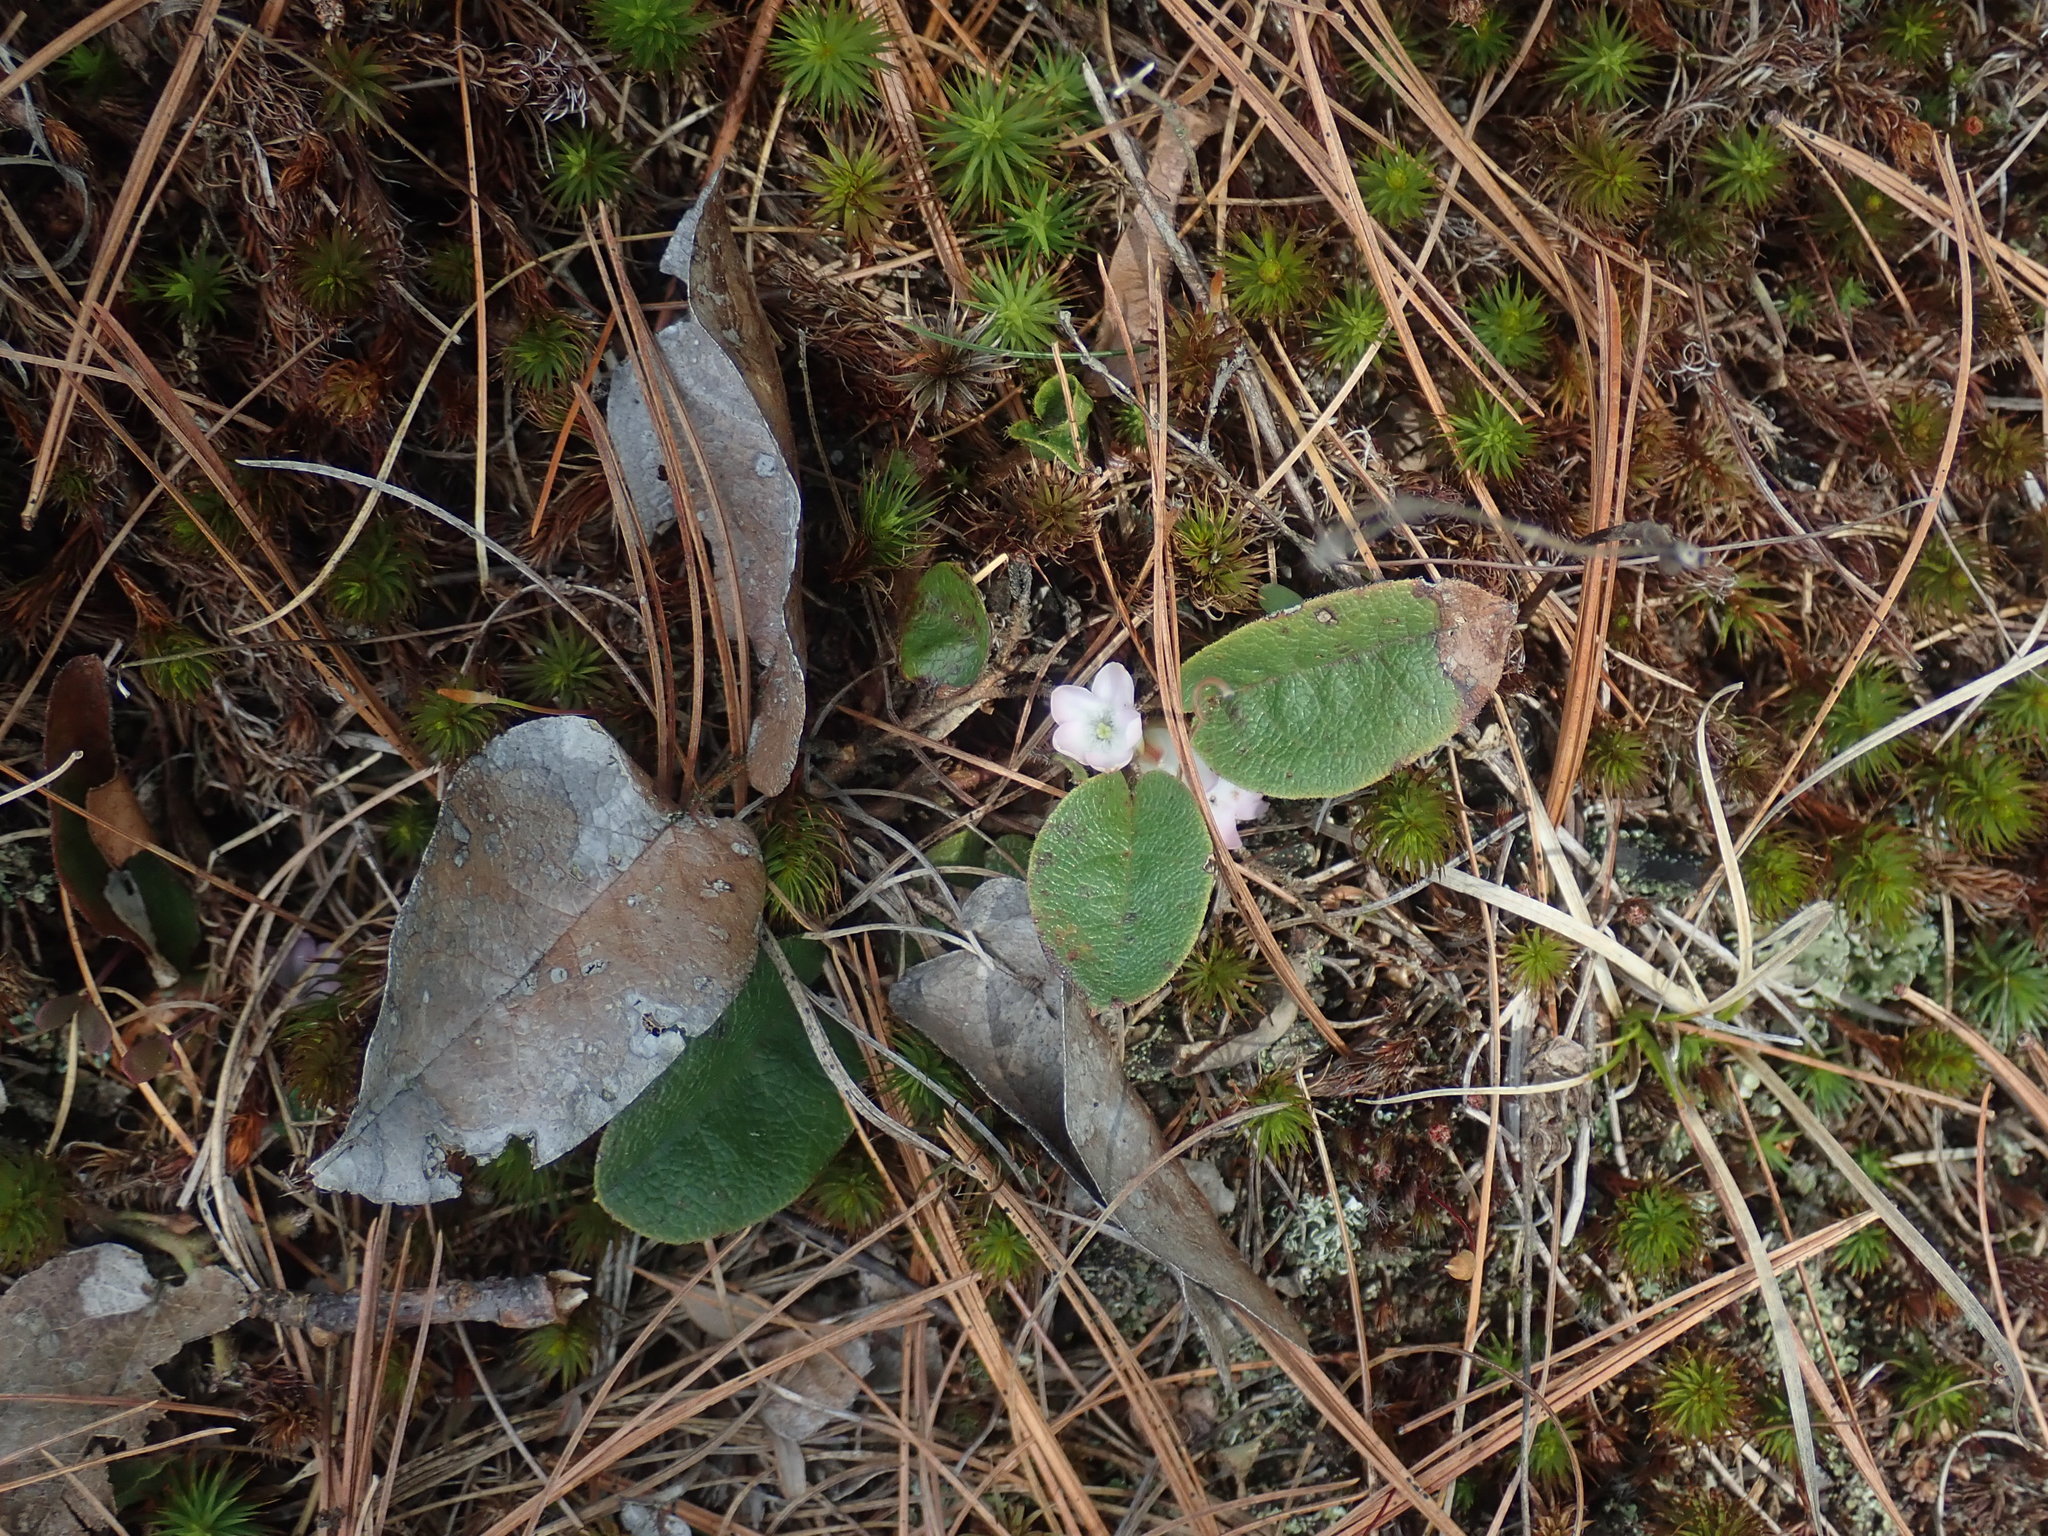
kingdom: Plantae
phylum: Tracheophyta
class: Magnoliopsida
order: Ericales
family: Ericaceae
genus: Epigaea
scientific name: Epigaea repens
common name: Gravelroot
